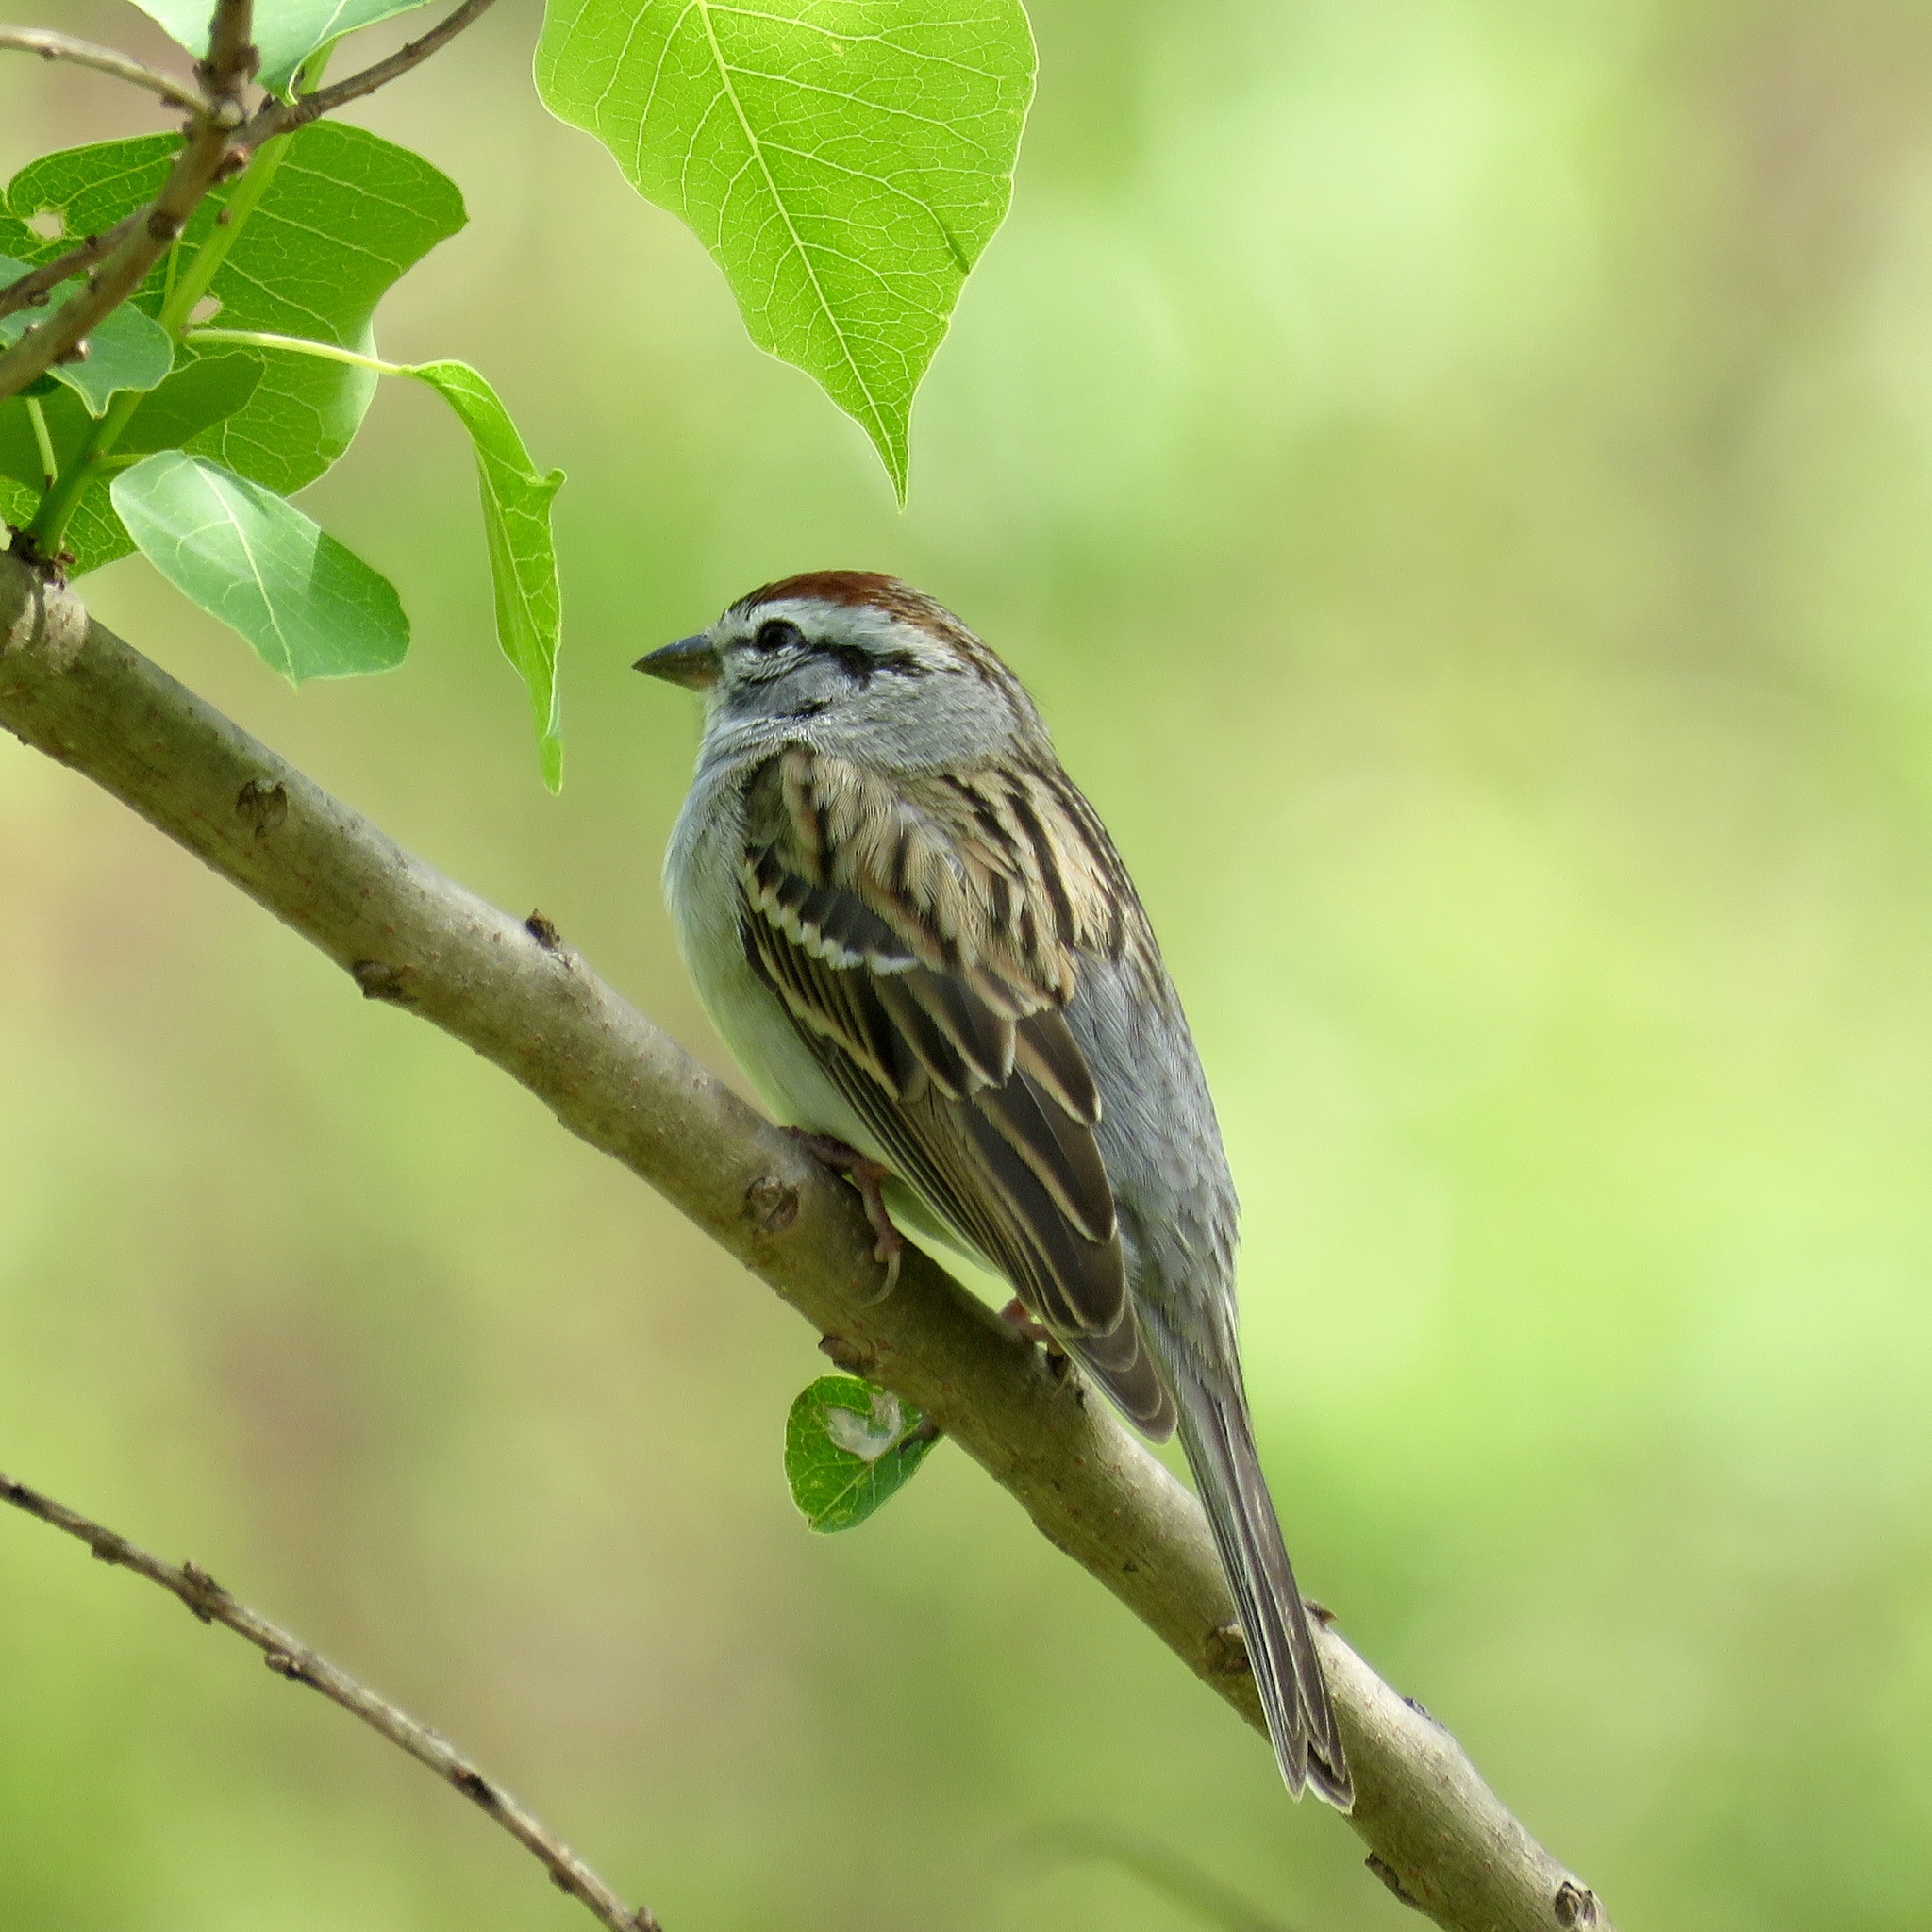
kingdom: Animalia
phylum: Chordata
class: Aves
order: Passeriformes
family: Passerellidae
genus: Spizella
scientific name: Spizella passerina
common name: Chipping sparrow
